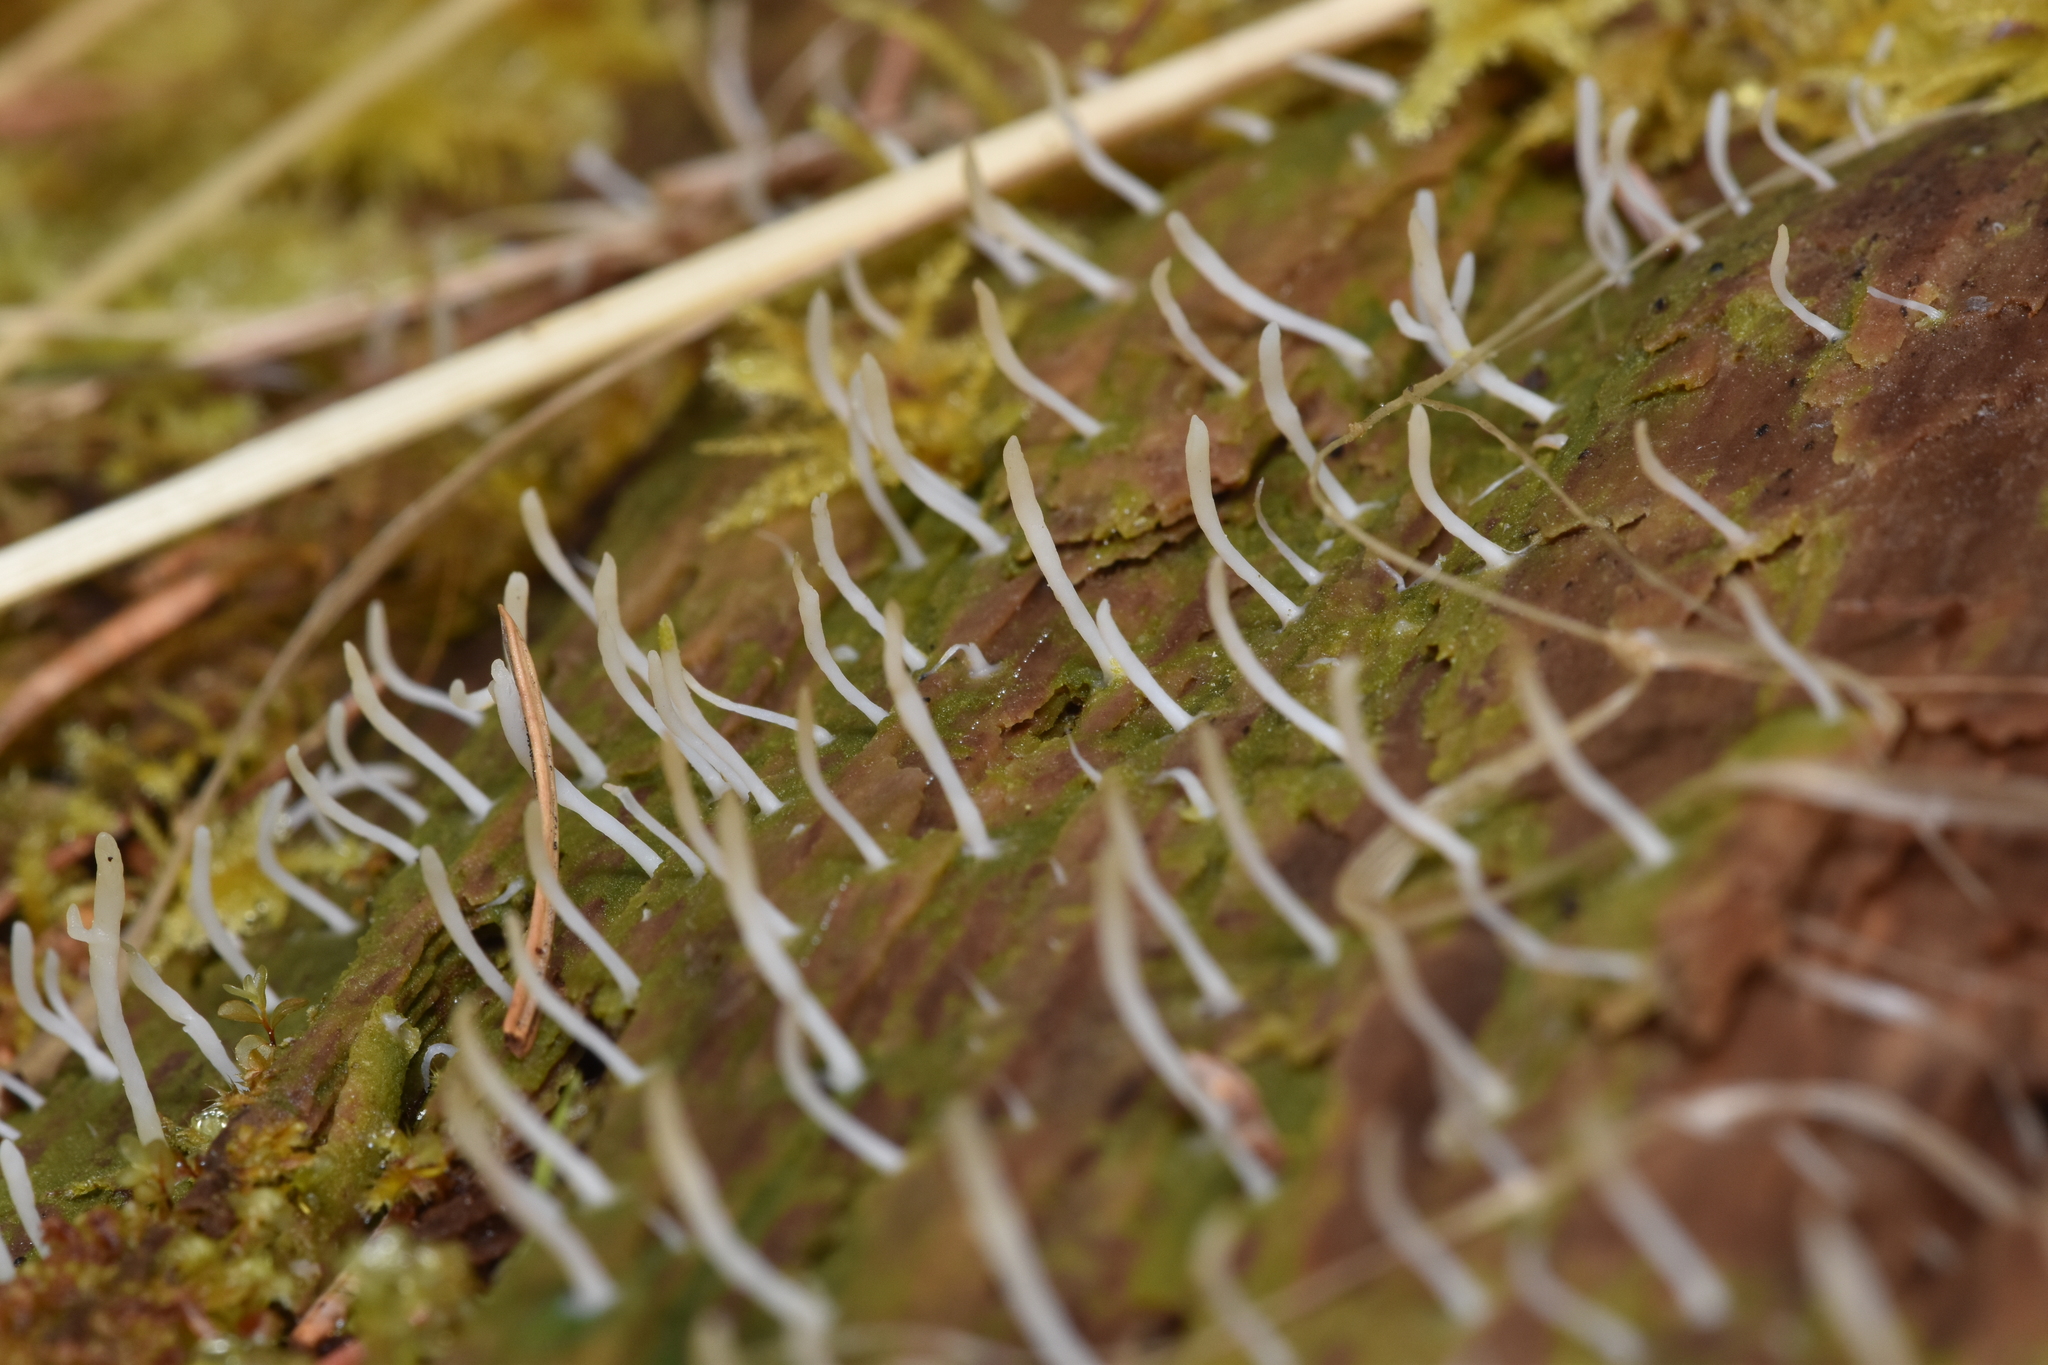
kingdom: Fungi
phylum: Basidiomycota
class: Agaricomycetes
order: Cantharellales
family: Hydnaceae
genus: Multiclavula
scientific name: Multiclavula mucida
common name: White green-algae coral
